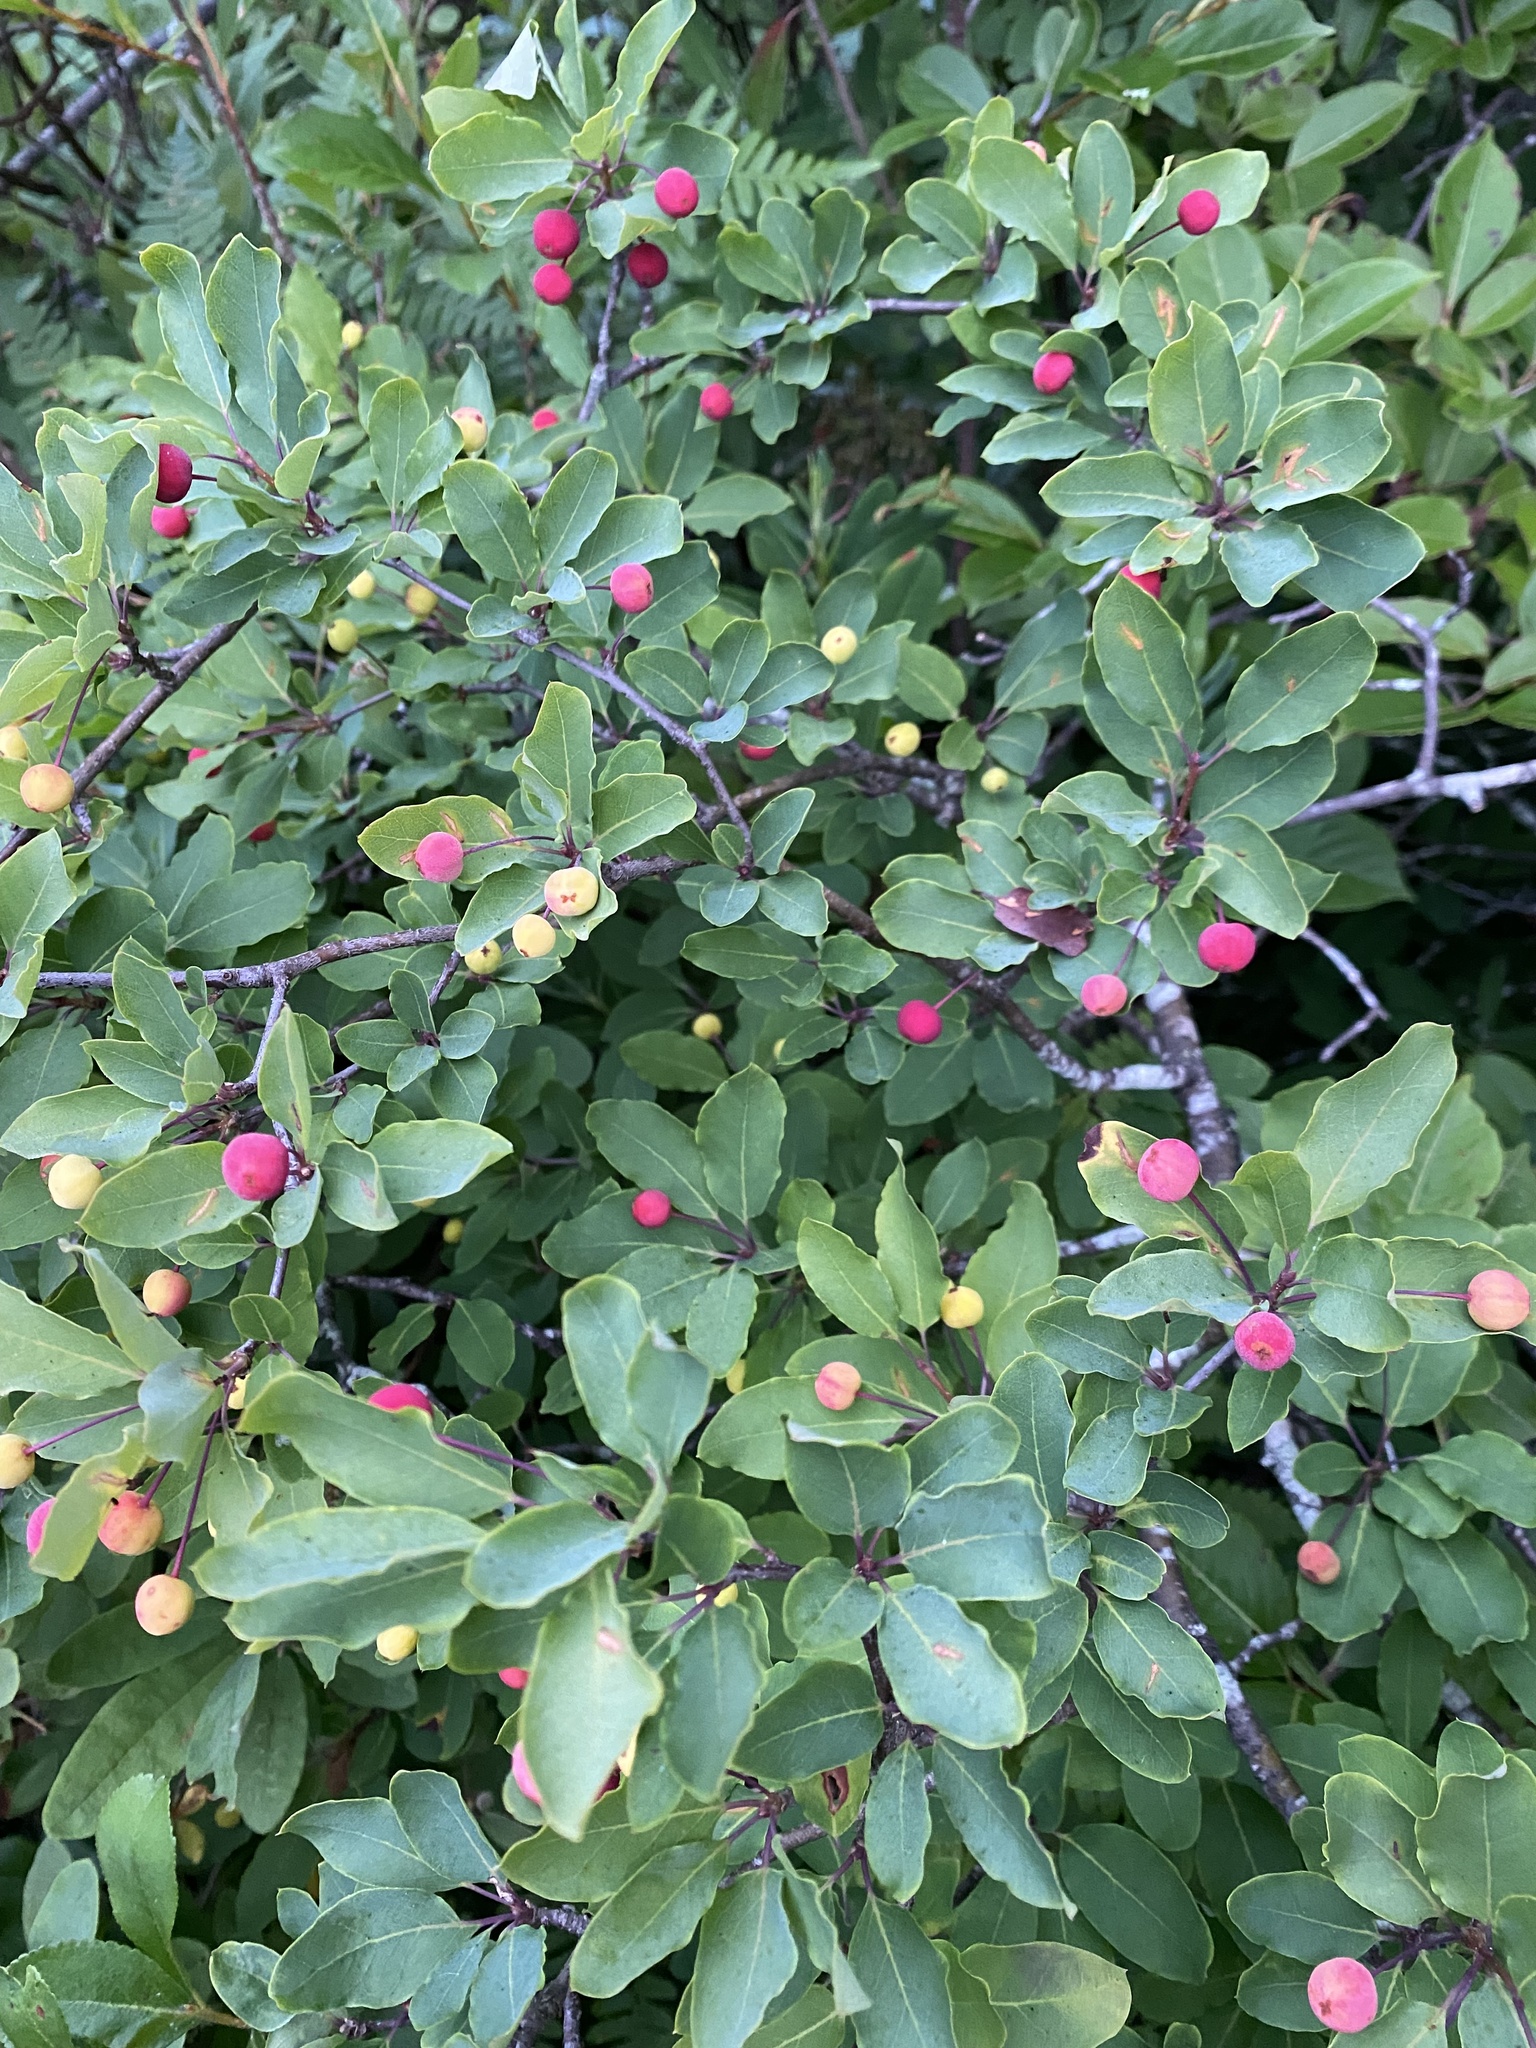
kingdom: Plantae
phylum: Tracheophyta
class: Magnoliopsida
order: Aquifoliales
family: Aquifoliaceae
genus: Ilex
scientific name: Ilex mucronata
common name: Catberry
